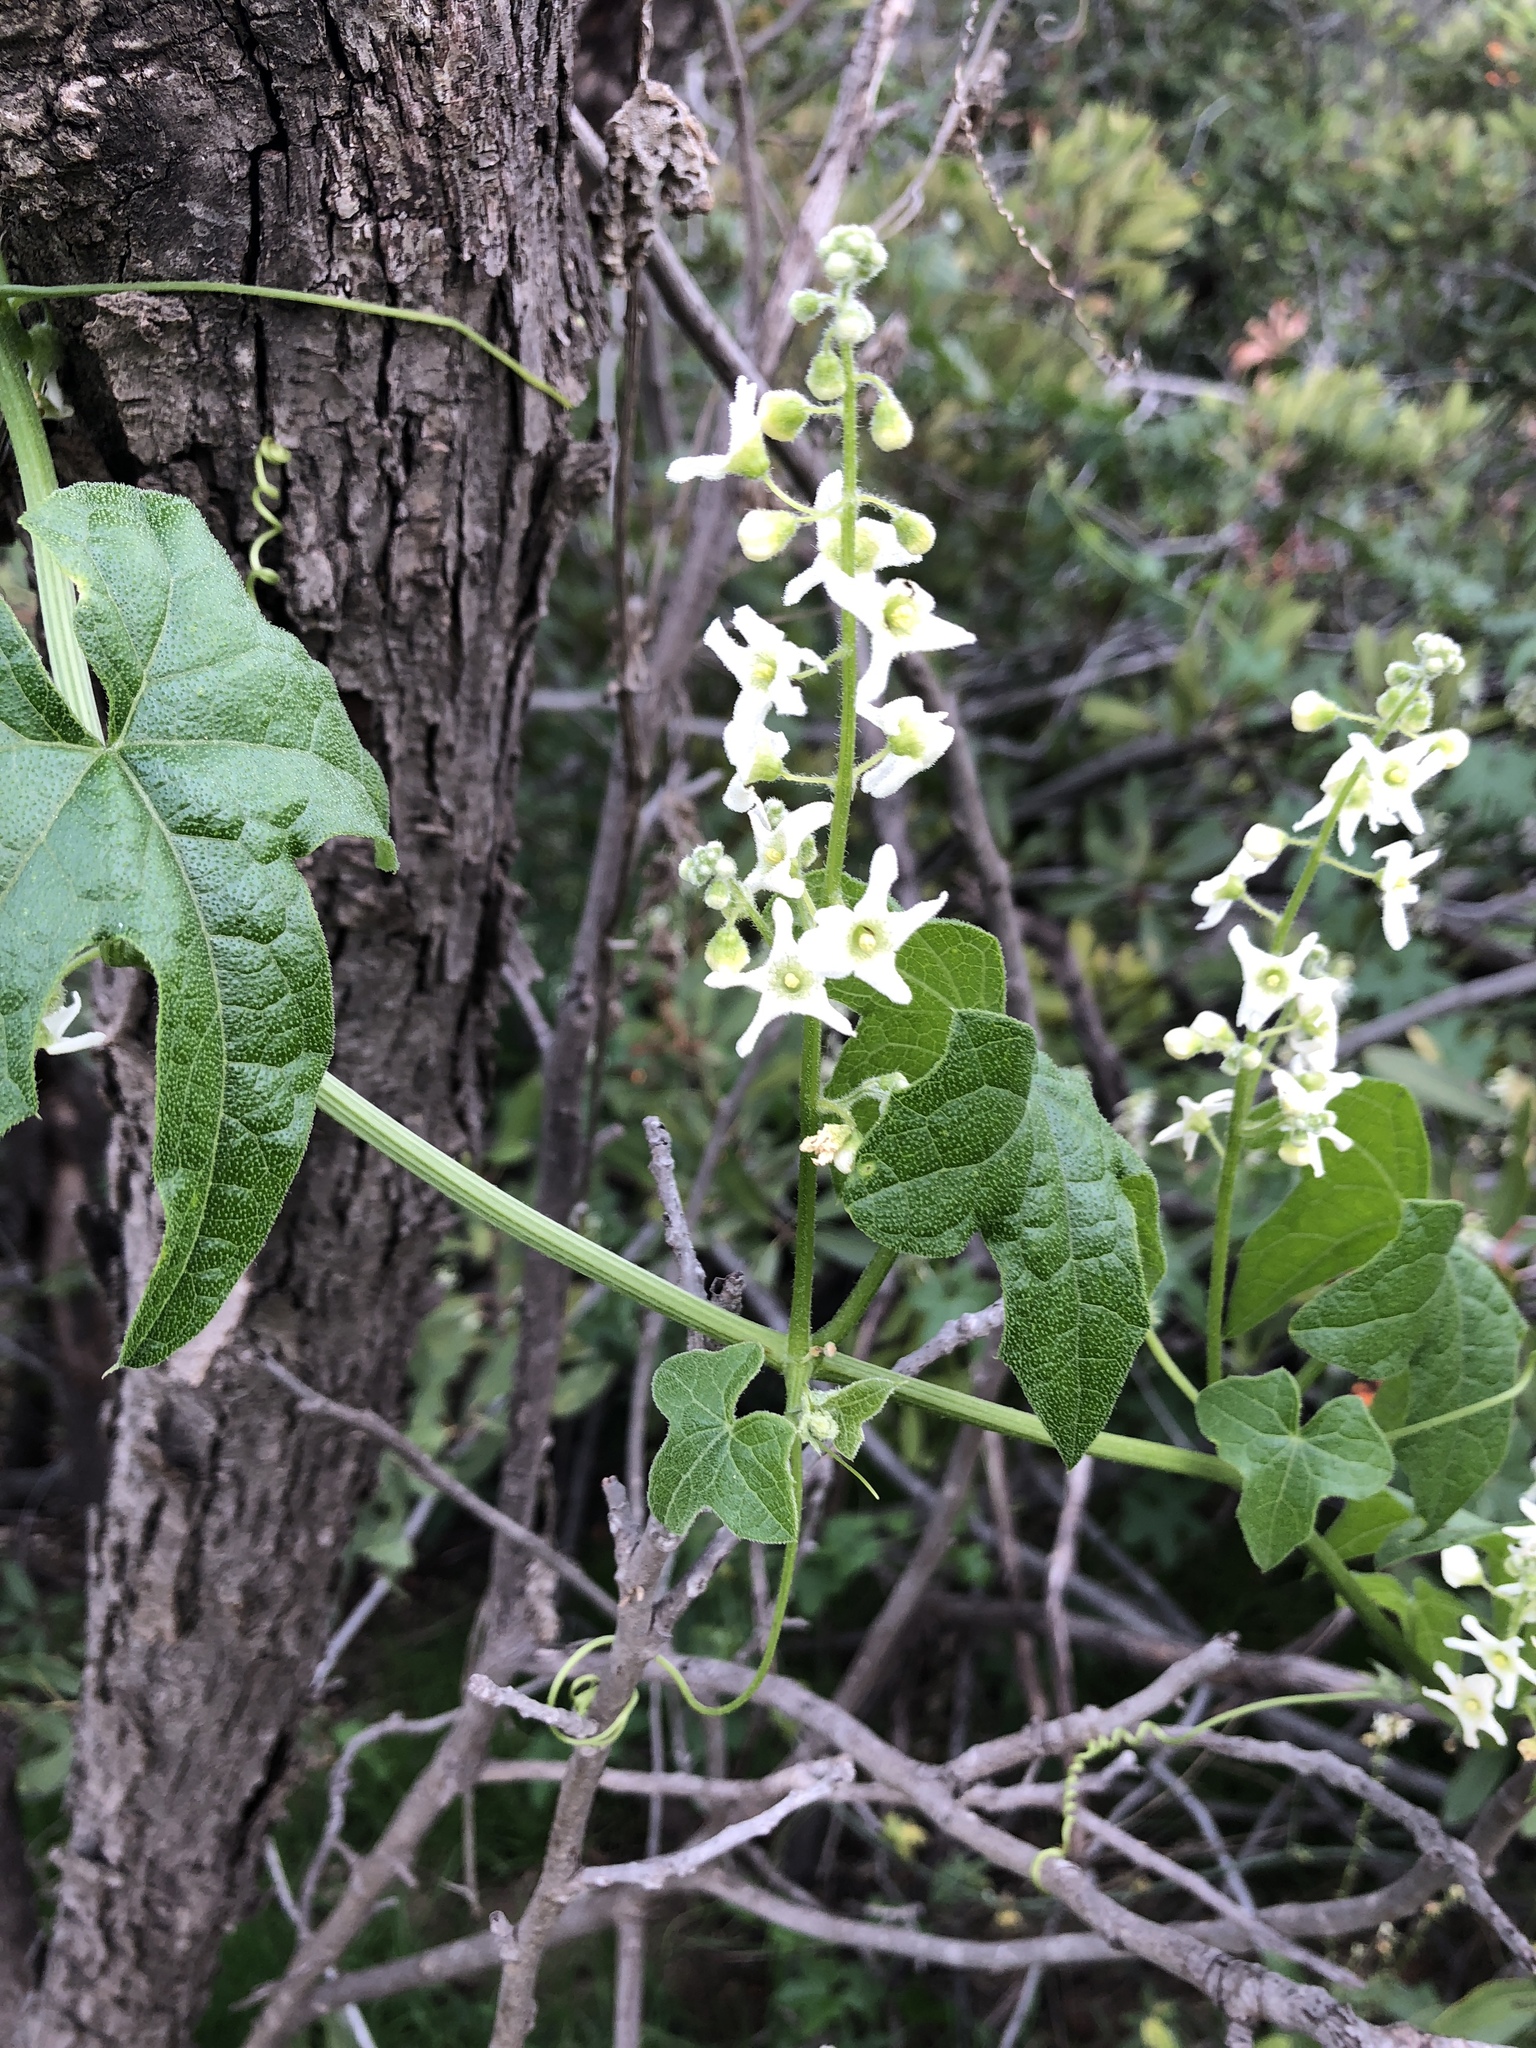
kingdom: Plantae
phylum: Tracheophyta
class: Magnoliopsida
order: Cucurbitales
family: Cucurbitaceae
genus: Marah
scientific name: Marah macrocarpa
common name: Cucamonga manroot
